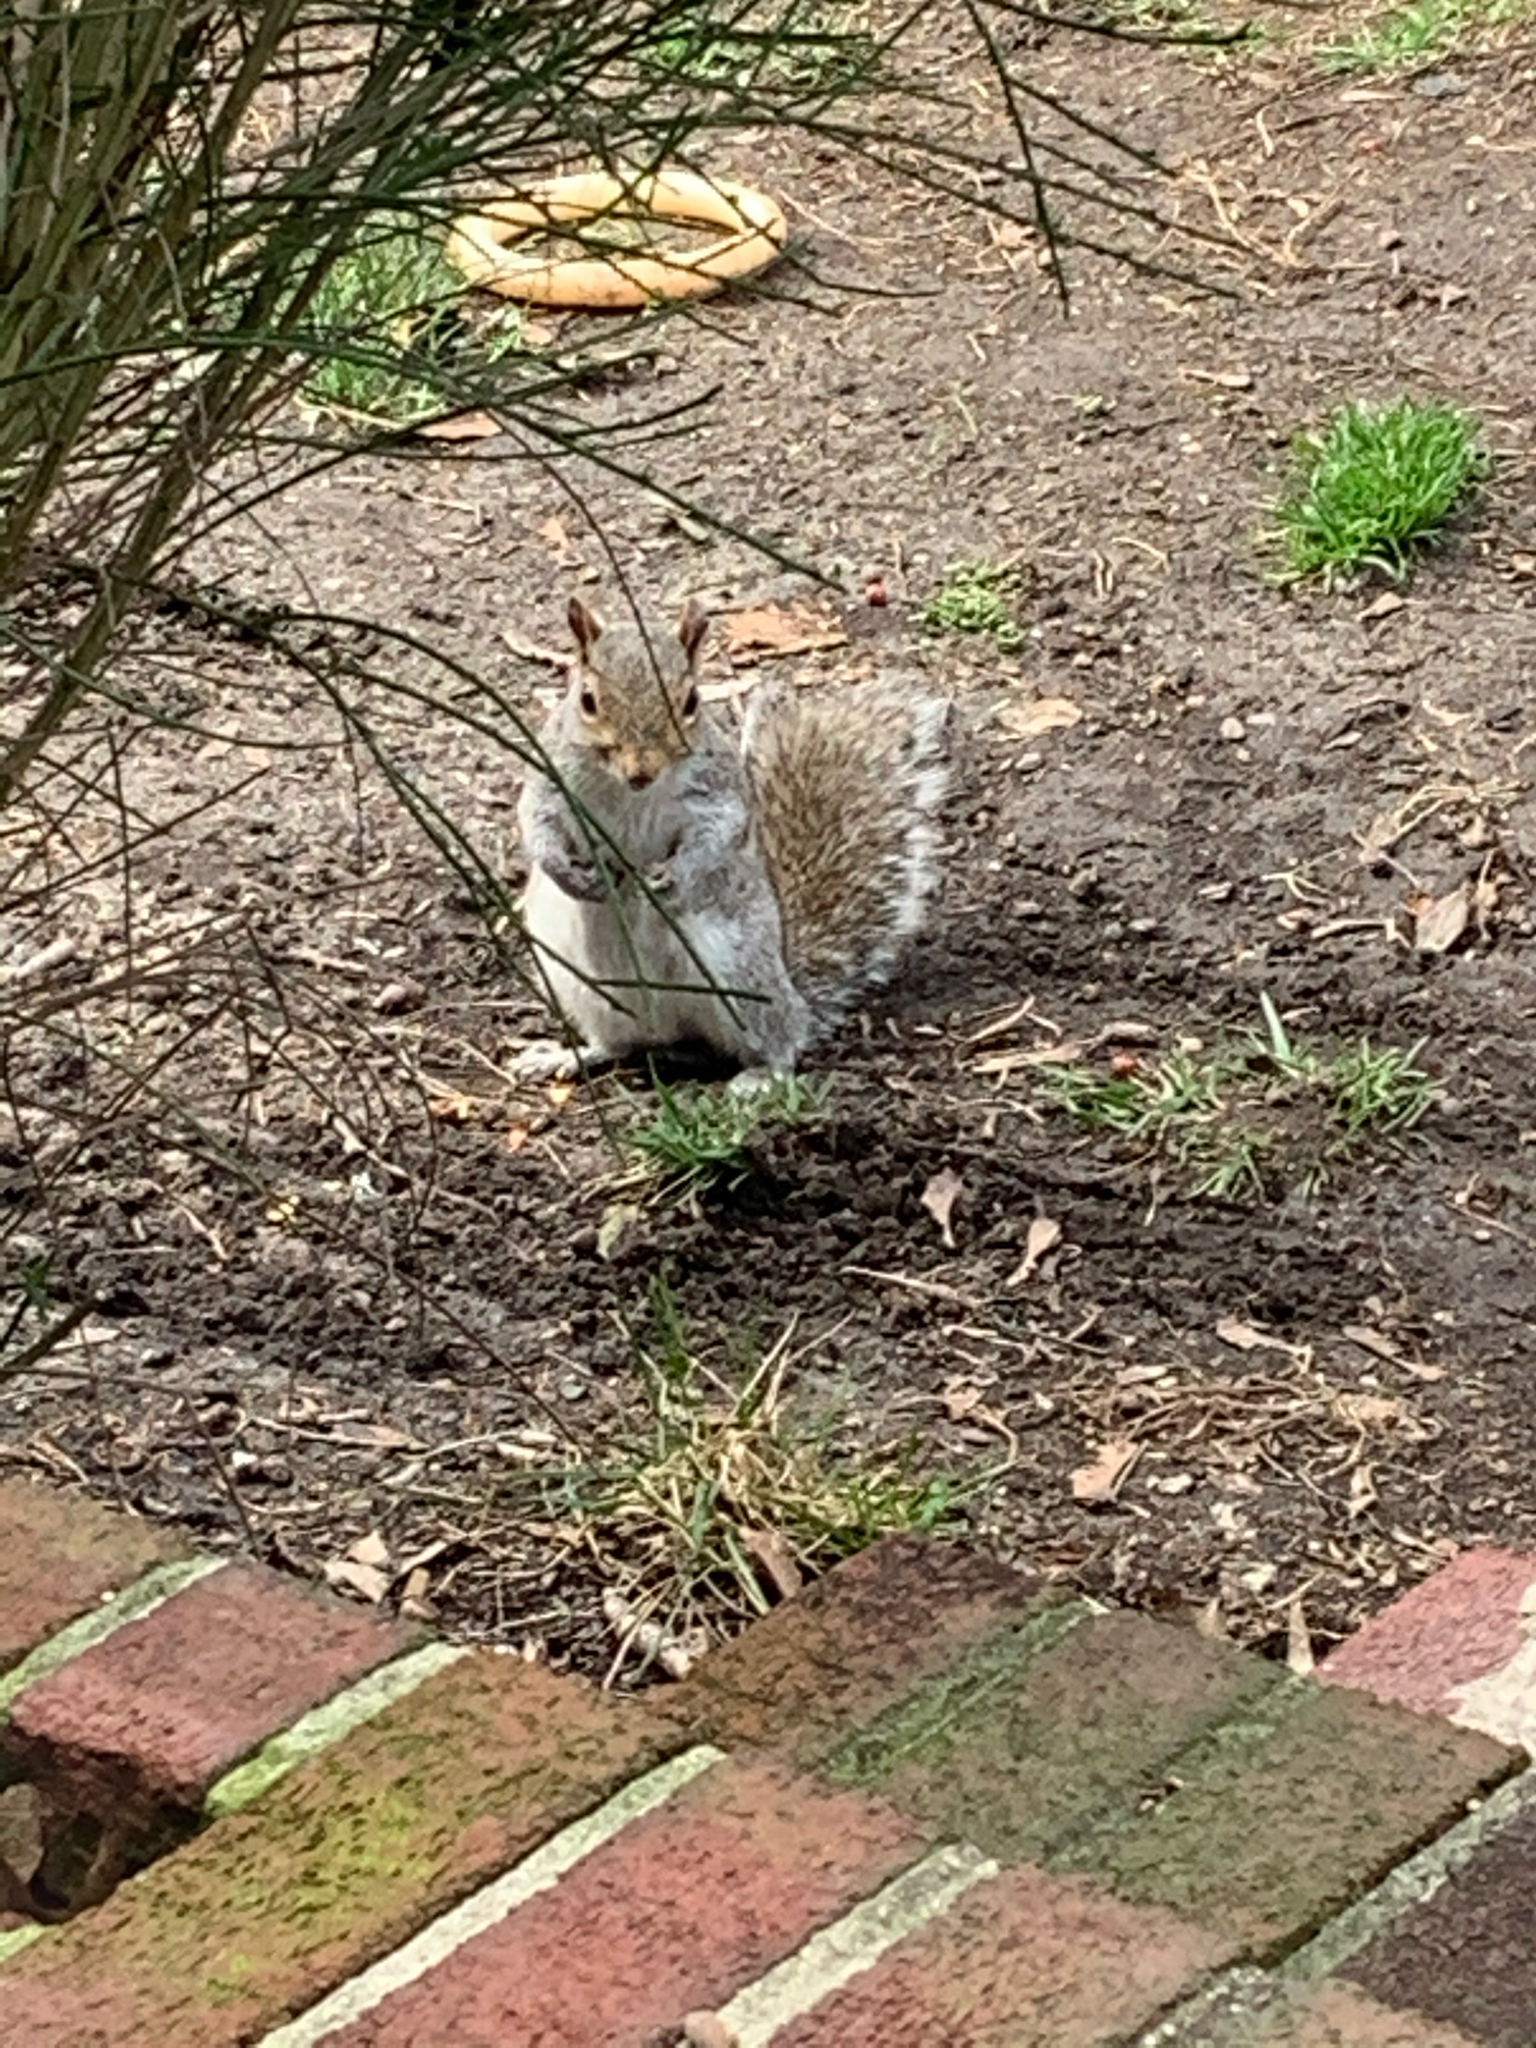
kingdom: Animalia
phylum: Chordata
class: Mammalia
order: Rodentia
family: Sciuridae
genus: Sciurus
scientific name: Sciurus carolinensis
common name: Eastern gray squirrel
